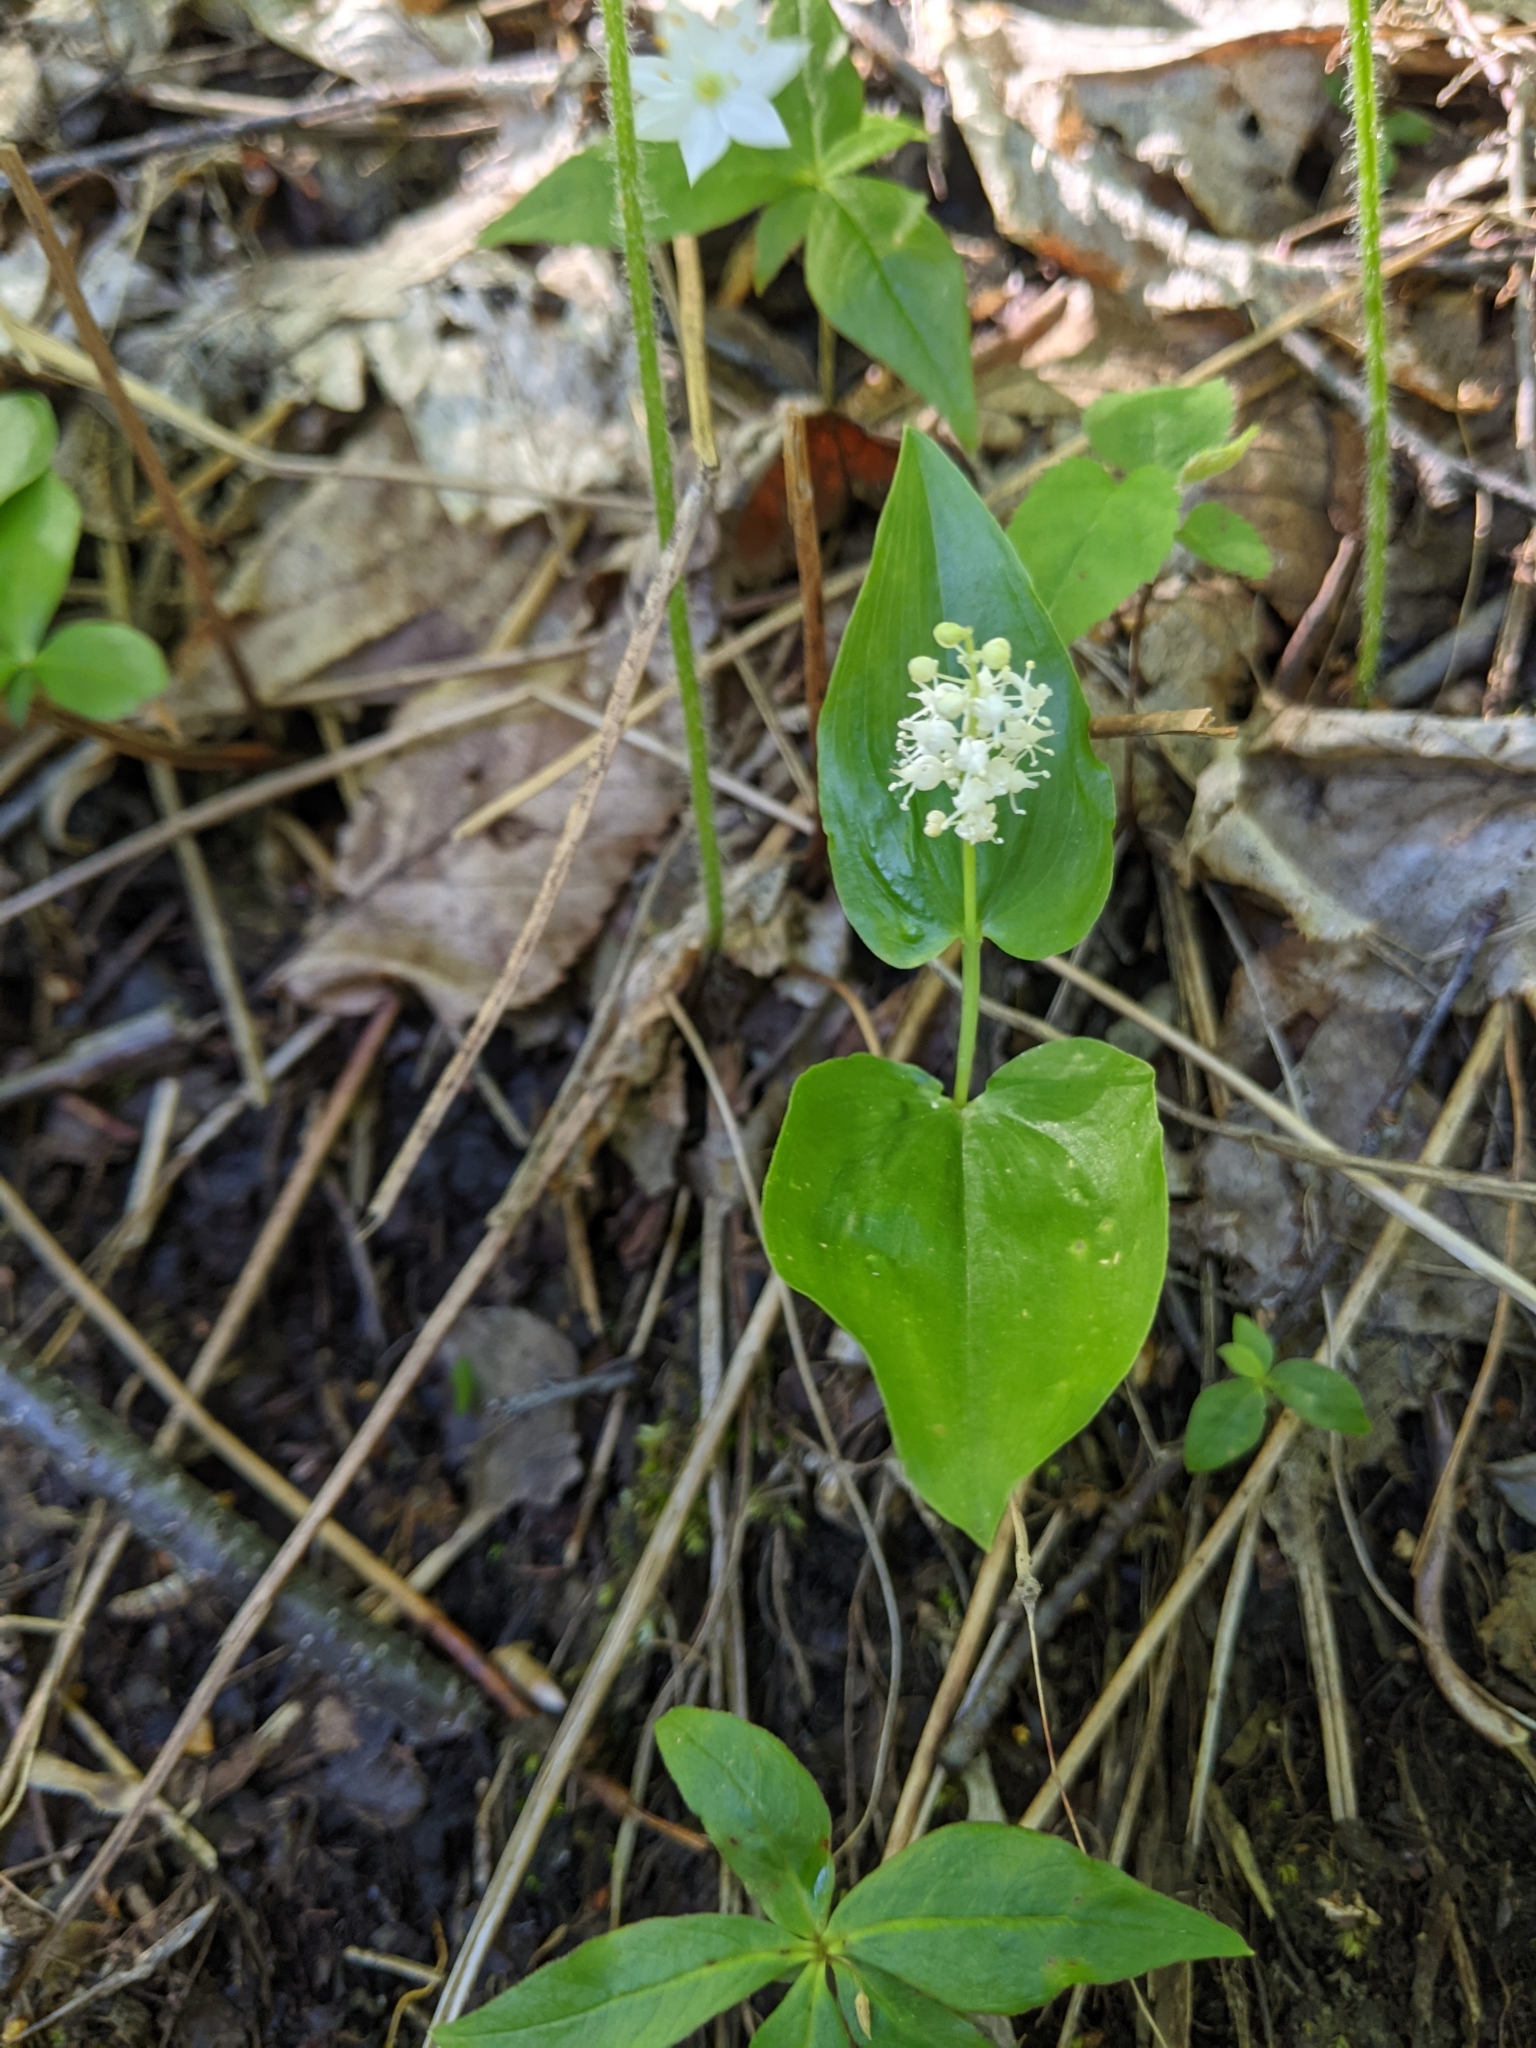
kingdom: Plantae
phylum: Tracheophyta
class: Liliopsida
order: Asparagales
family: Asparagaceae
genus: Maianthemum
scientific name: Maianthemum canadense
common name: False lily-of-the-valley
